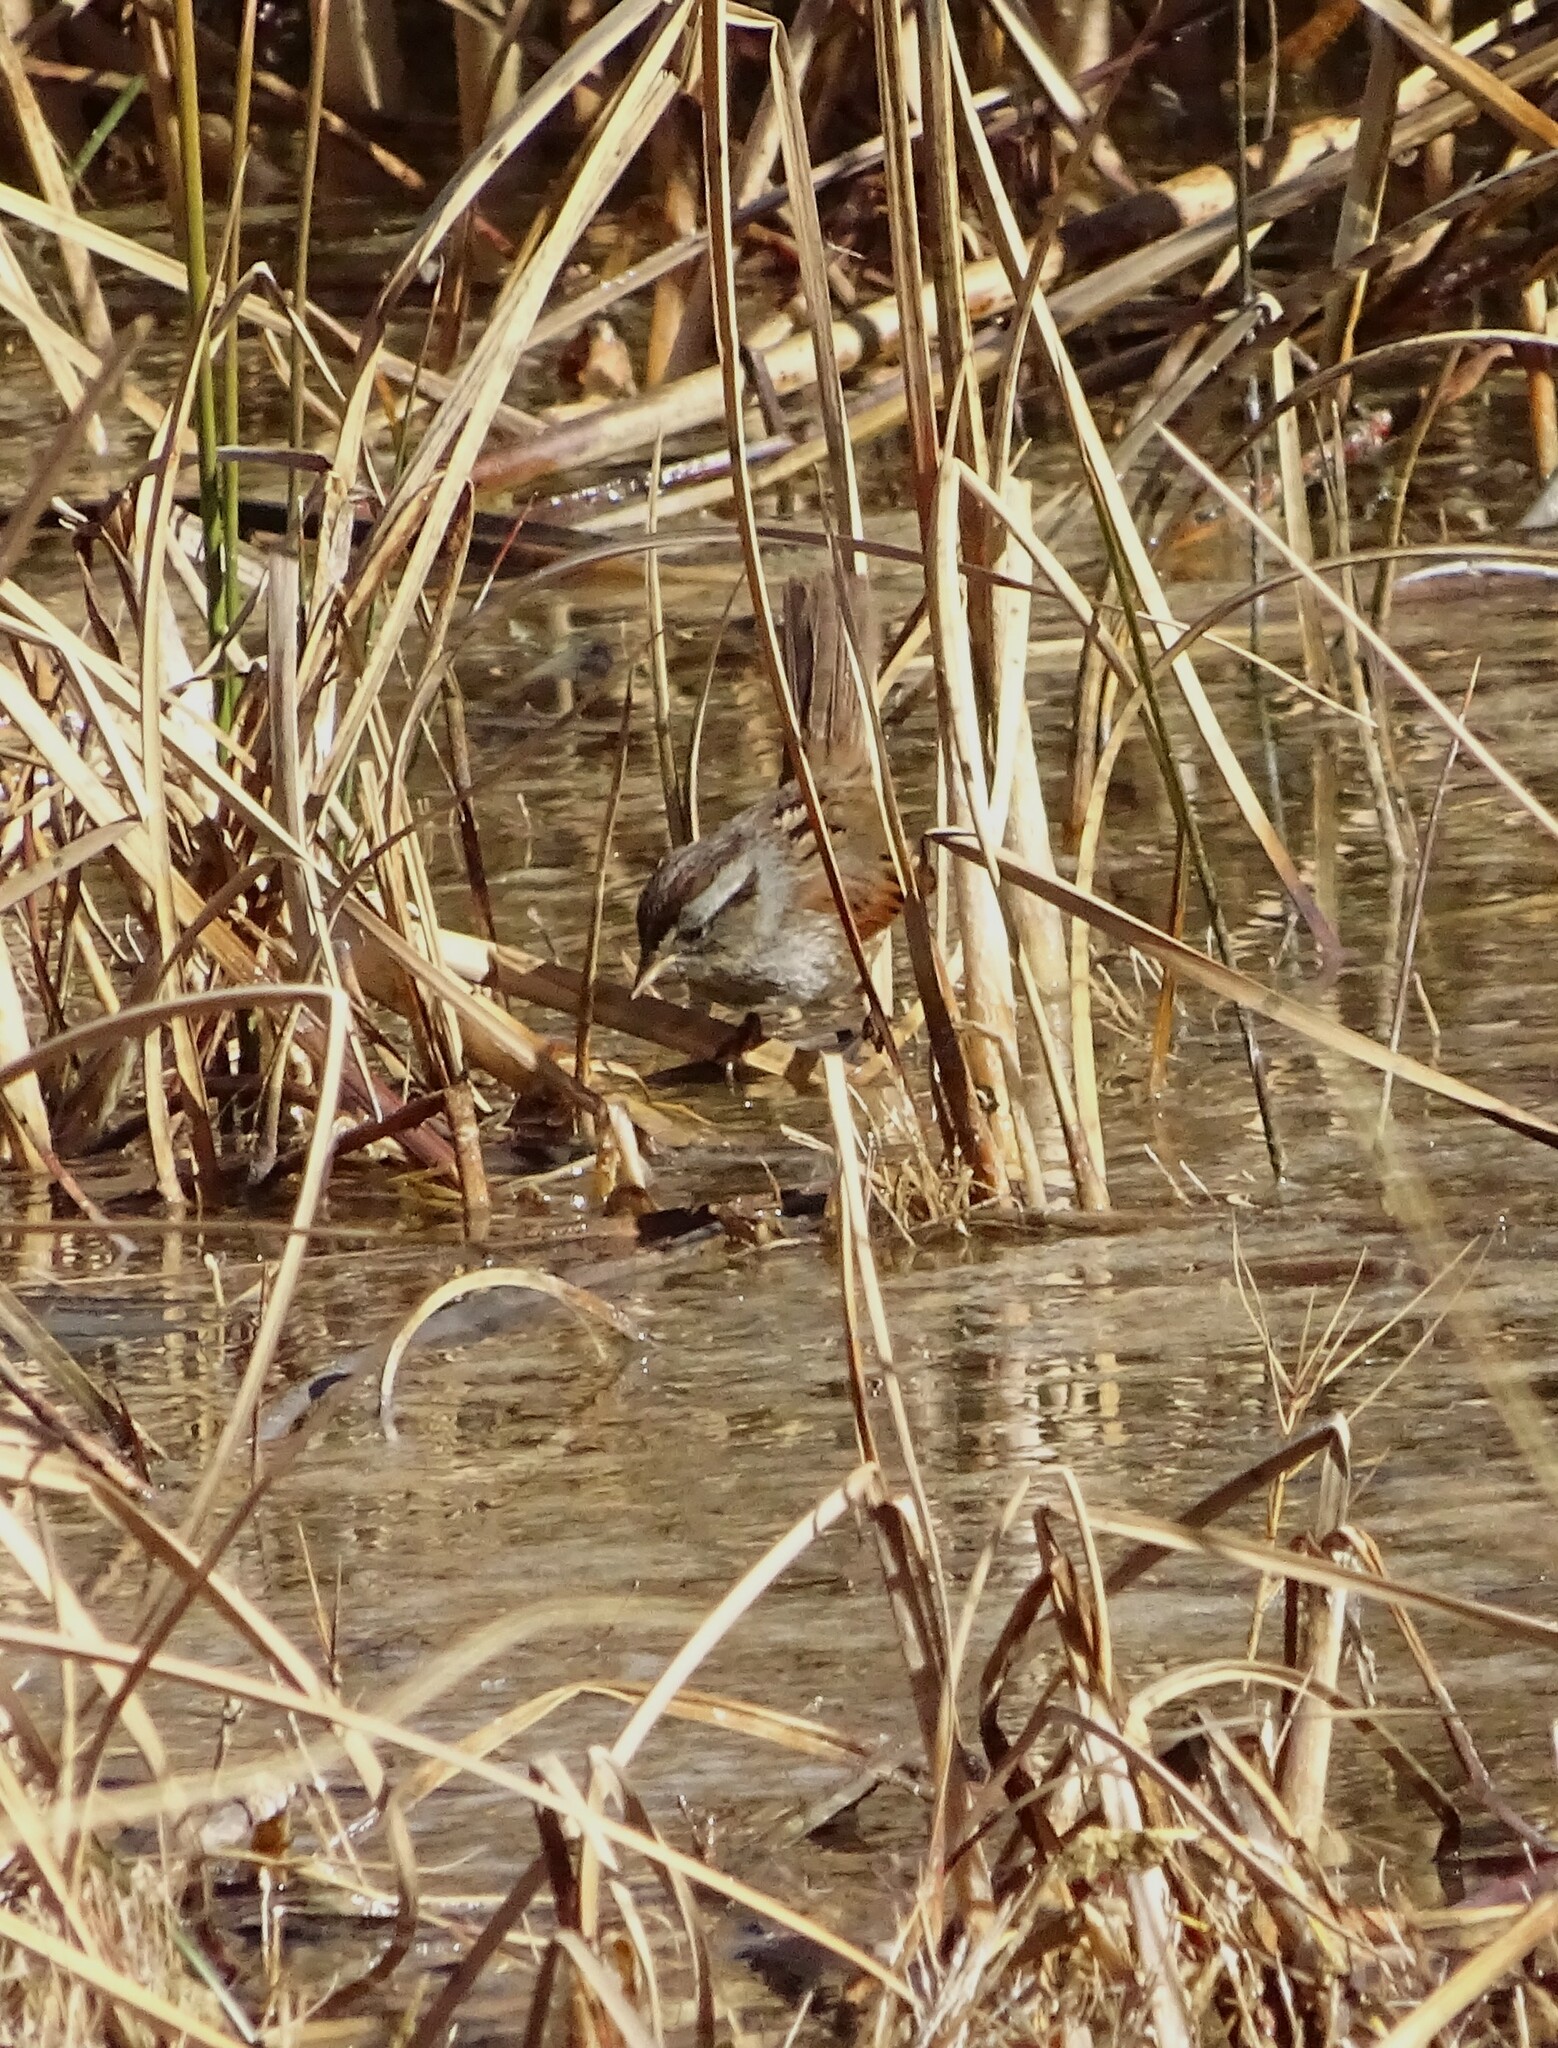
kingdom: Animalia
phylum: Chordata
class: Aves
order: Passeriformes
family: Passerellidae
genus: Melospiza
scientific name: Melospiza georgiana
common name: Swamp sparrow
